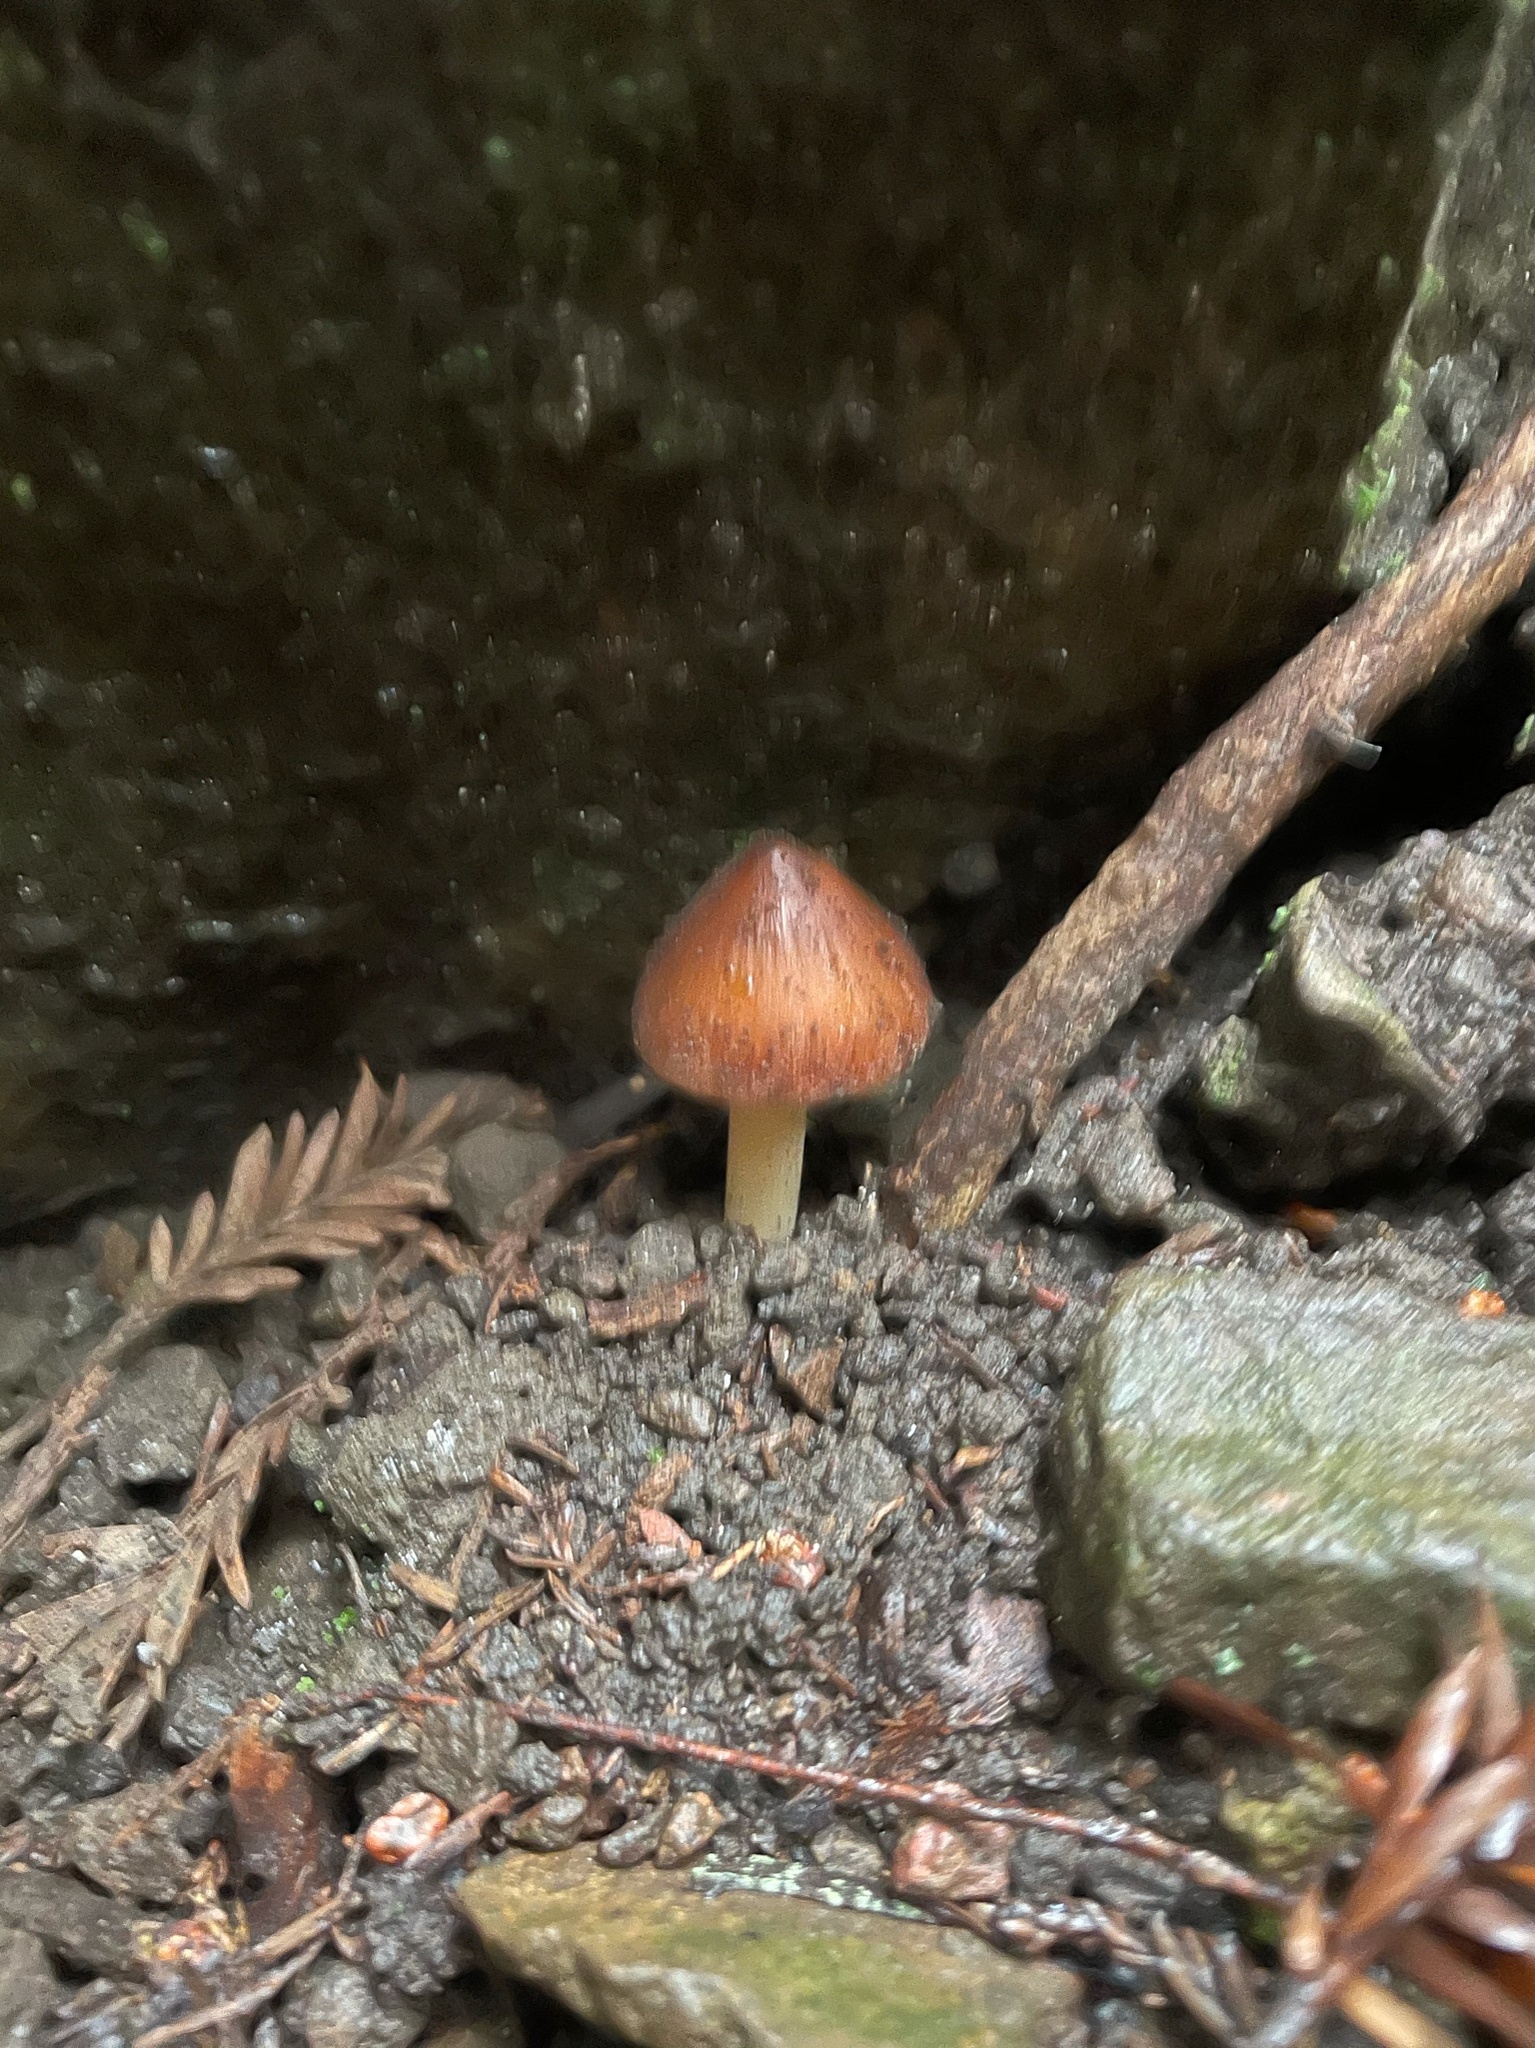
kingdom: Fungi
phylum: Basidiomycota
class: Agaricomycetes
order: Agaricales
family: Tricholomataceae
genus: Caulorhiza
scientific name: Caulorhiza umbonata
